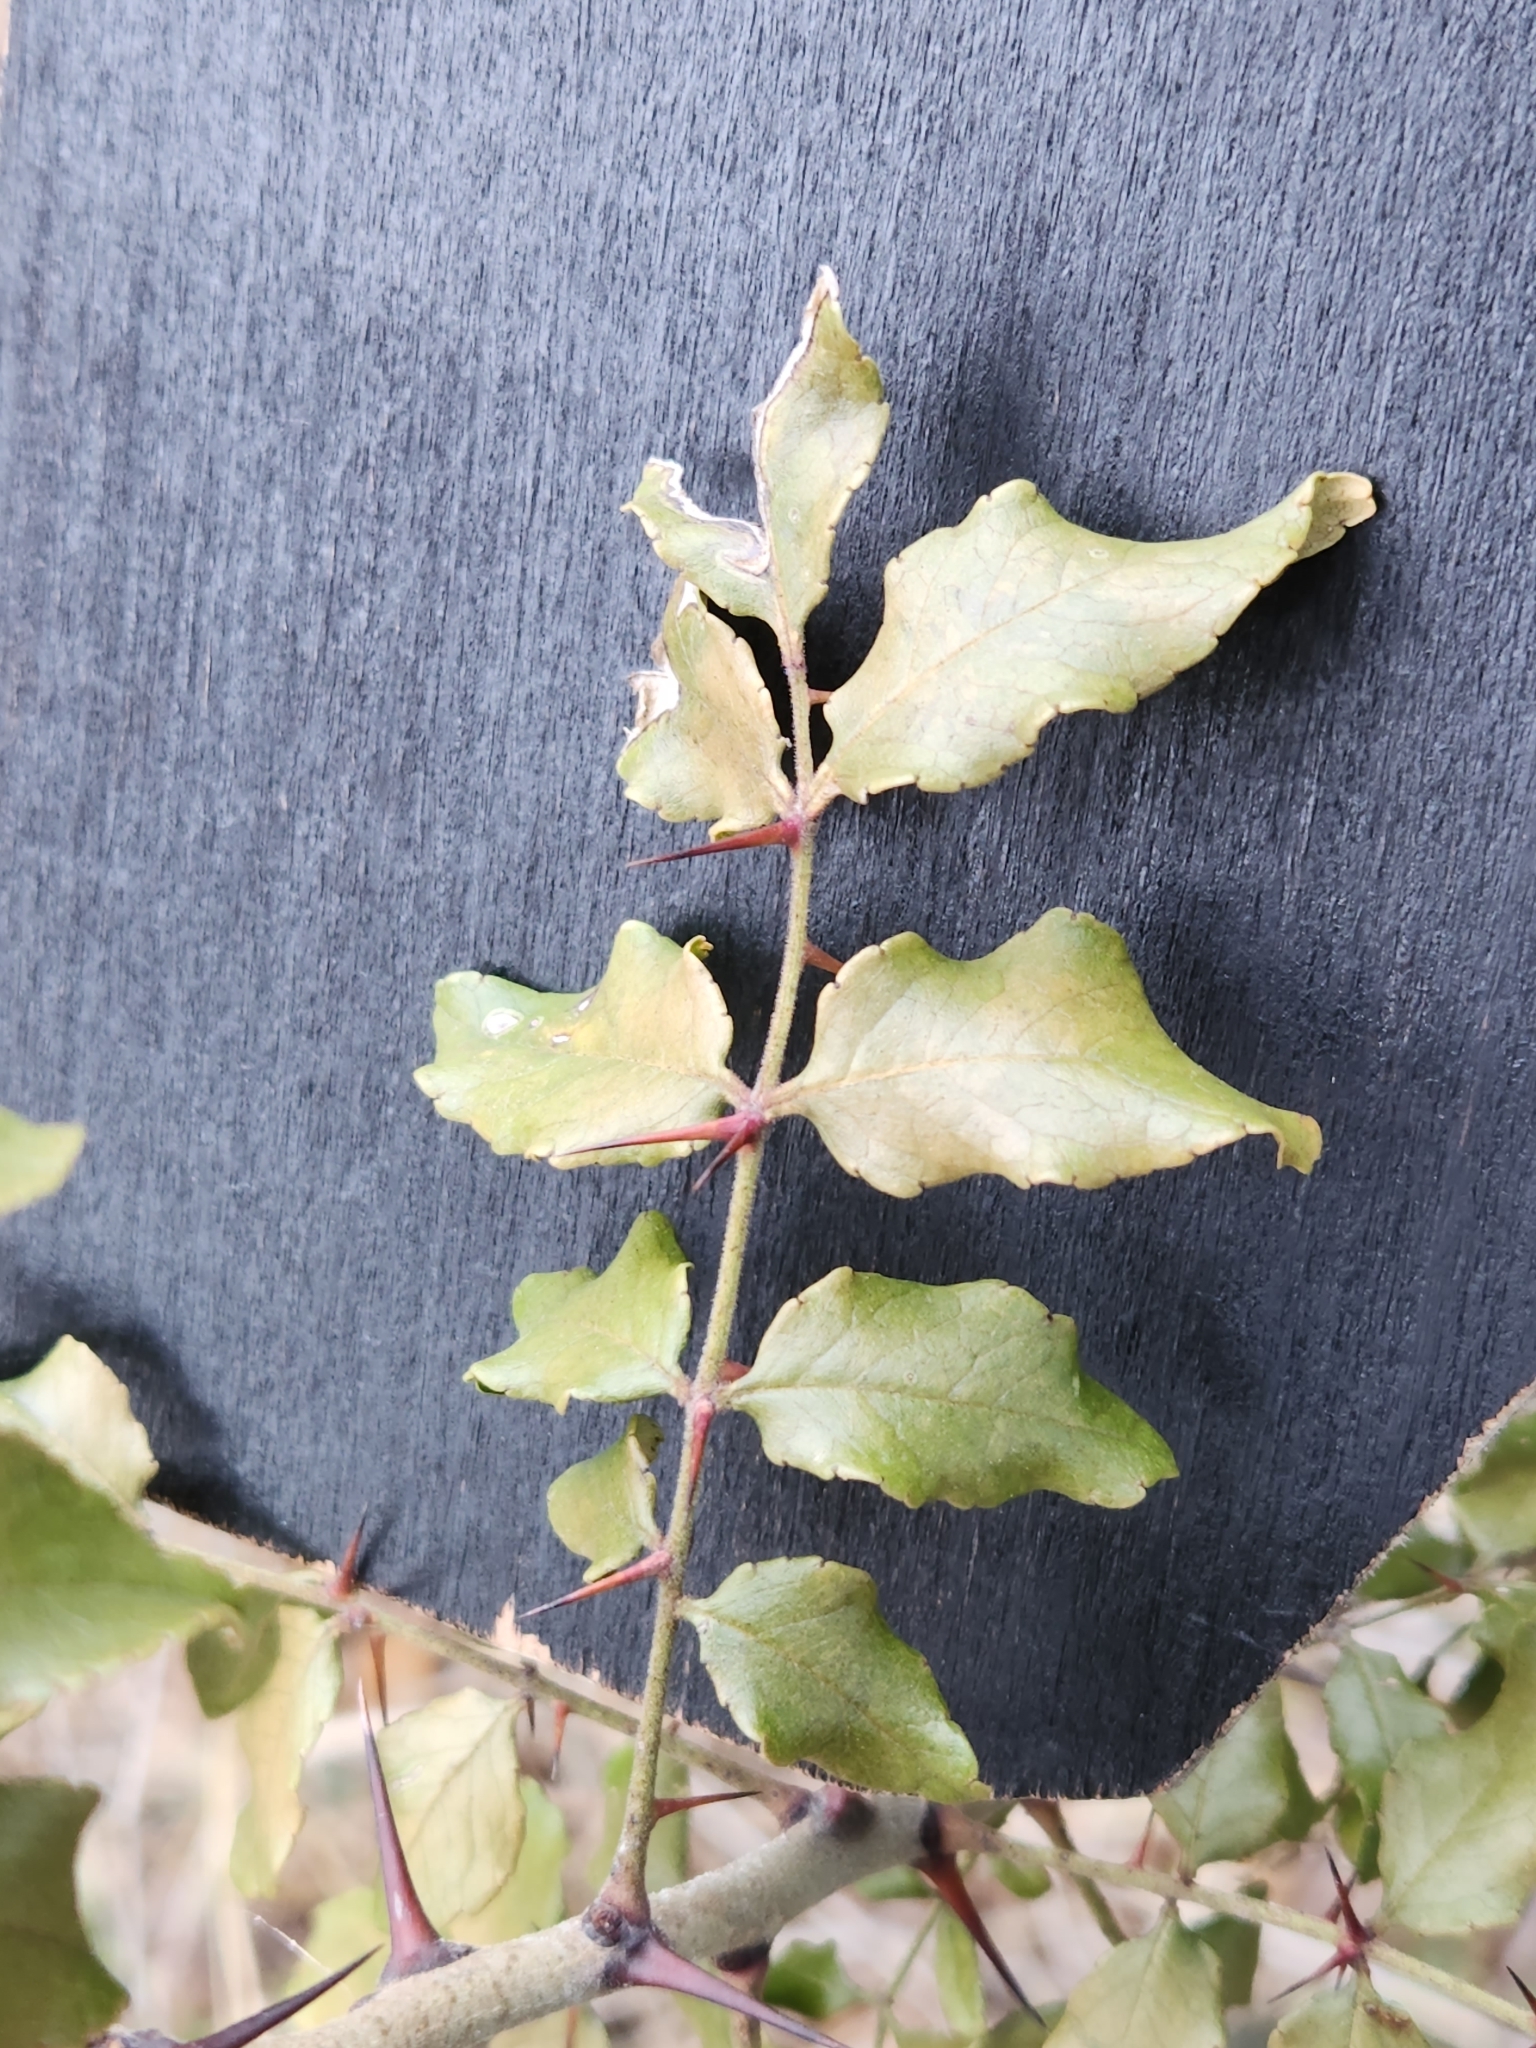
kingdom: Plantae
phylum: Tracheophyta
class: Magnoliopsida
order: Sapindales
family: Rutaceae
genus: Zanthoxylum
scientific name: Zanthoxylum clava-herculis
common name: Hercules'-club
